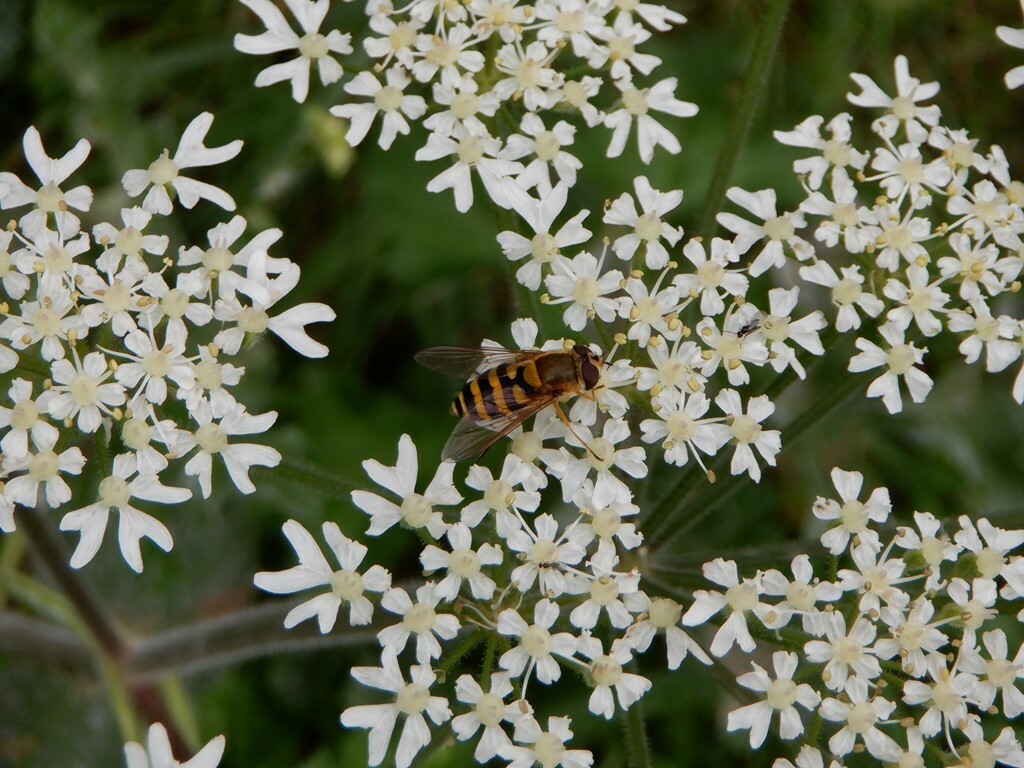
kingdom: Animalia
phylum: Arthropoda
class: Insecta
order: Diptera
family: Syrphidae
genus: Syrphus
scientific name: Syrphus
